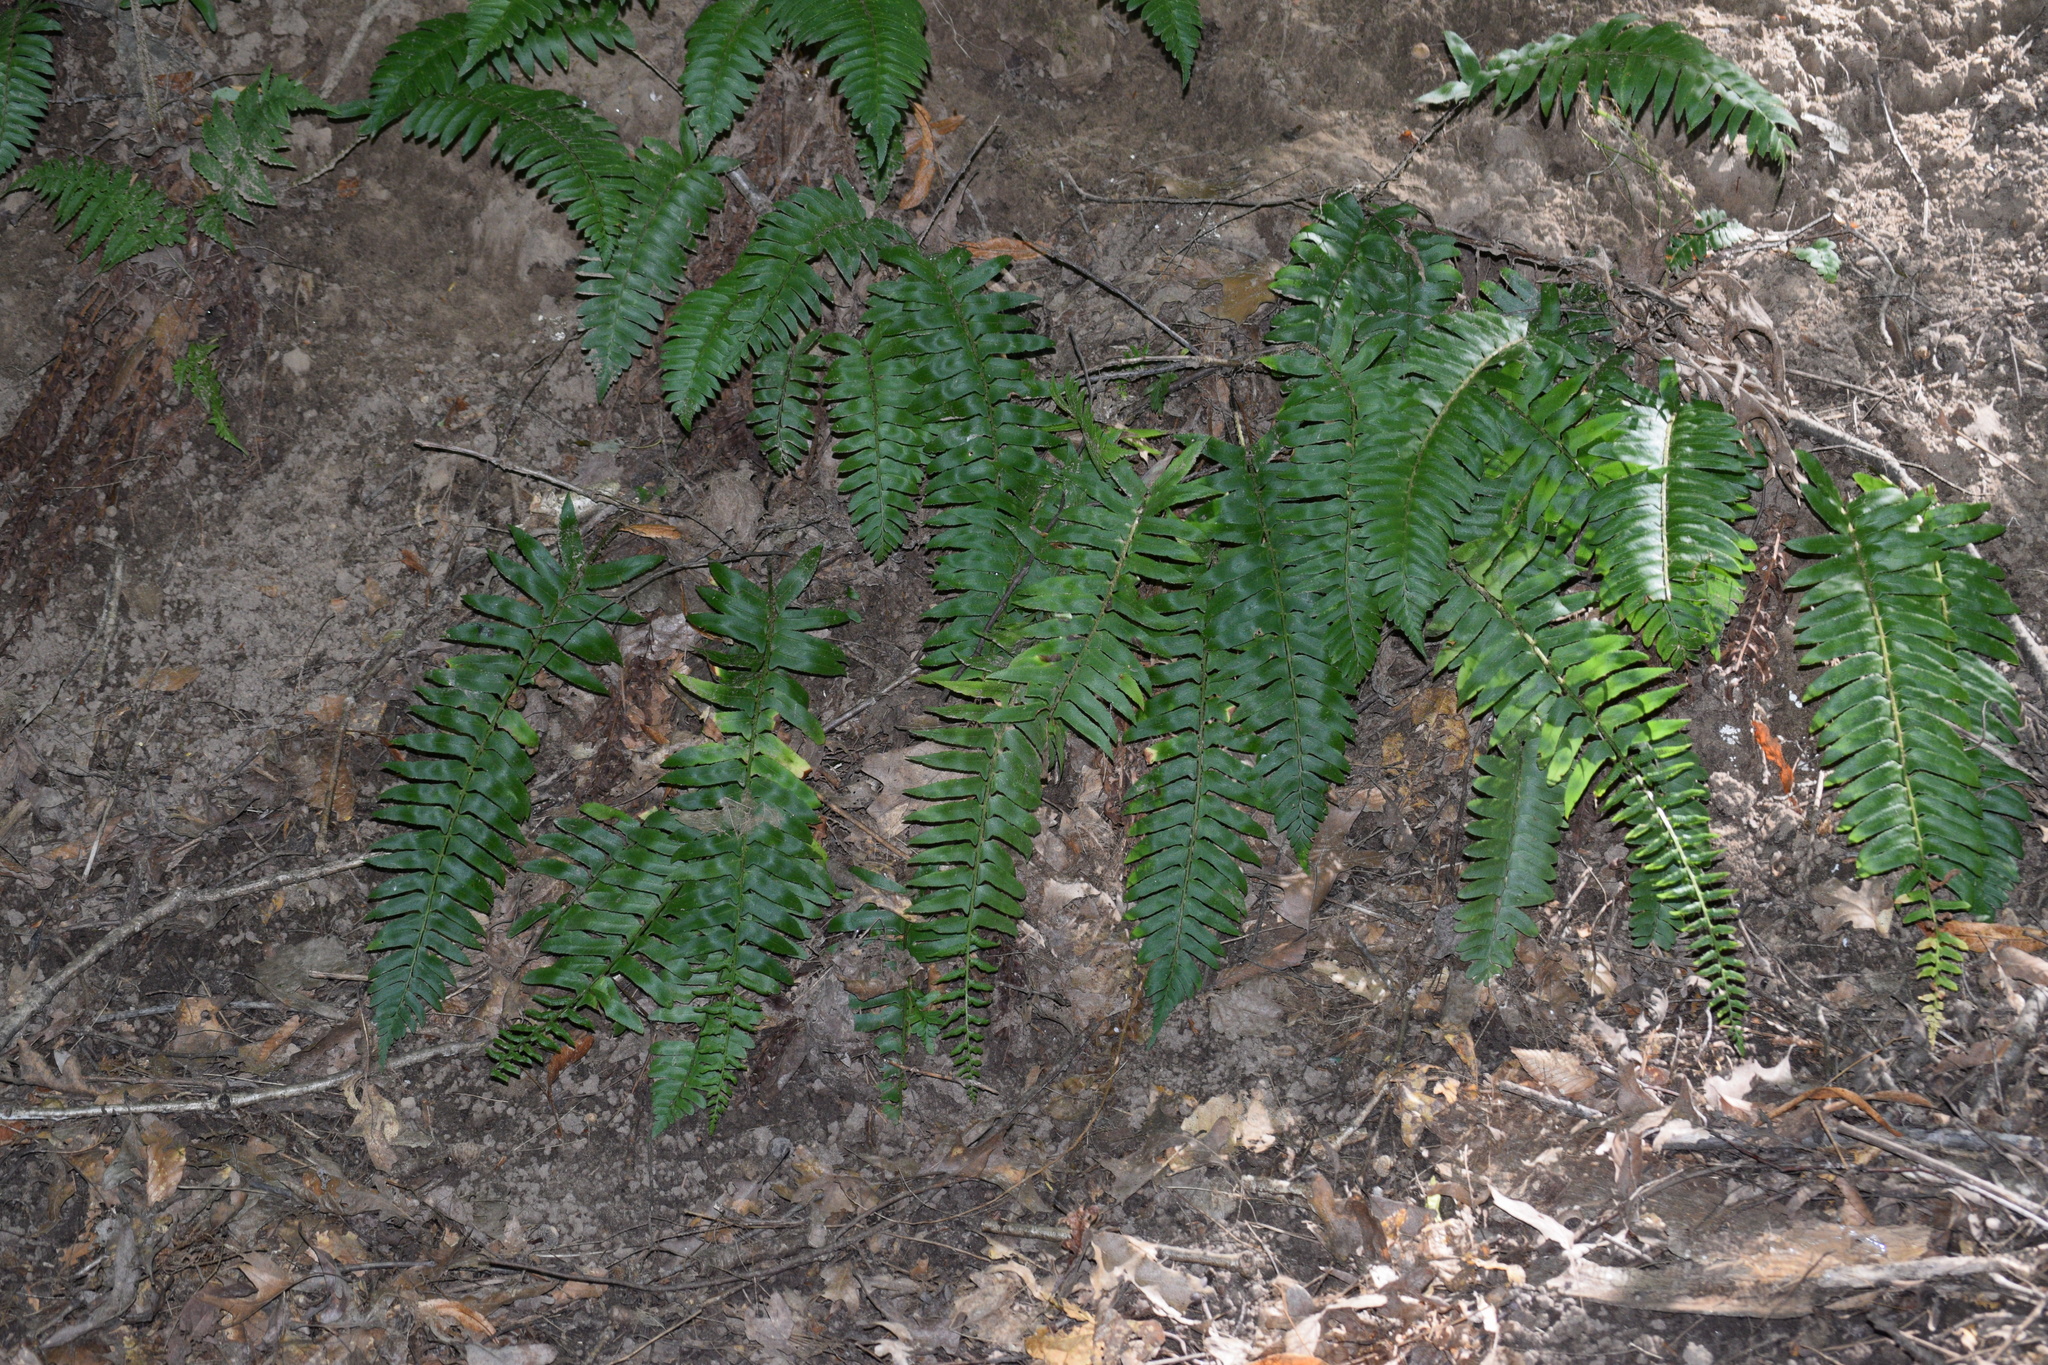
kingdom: Plantae
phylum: Tracheophyta
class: Polypodiopsida
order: Polypodiales
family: Dryopteridaceae
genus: Polystichum
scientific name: Polystichum acrostichoides
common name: Christmas fern
